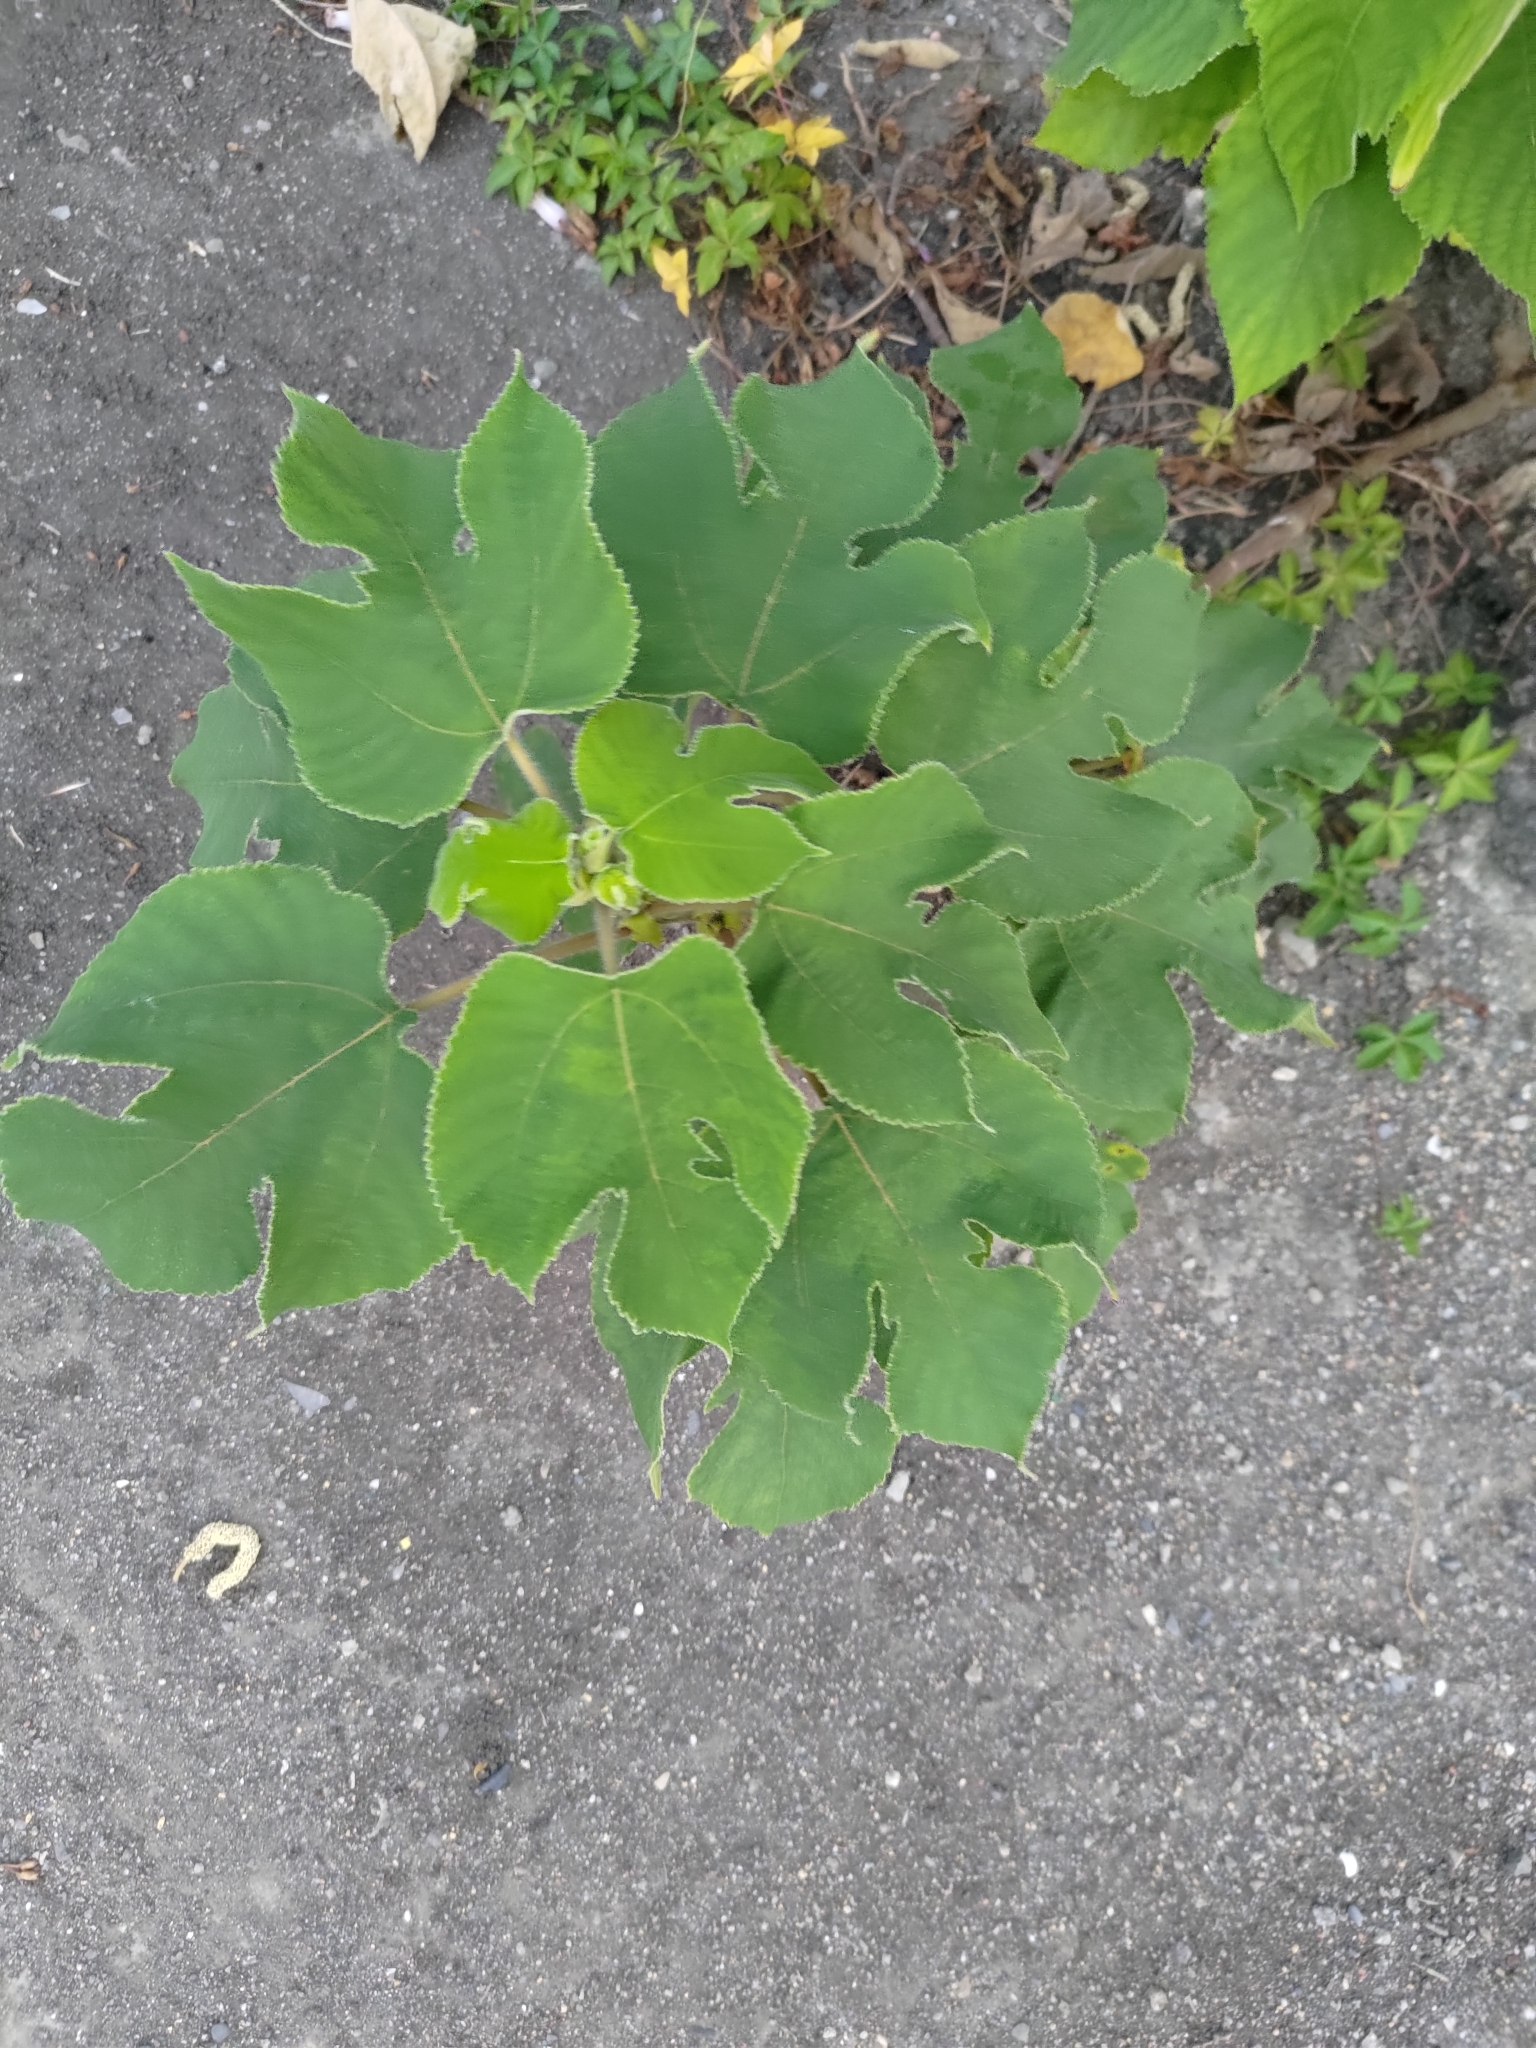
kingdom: Plantae
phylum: Tracheophyta
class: Magnoliopsida
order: Rosales
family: Moraceae
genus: Broussonetia
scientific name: Broussonetia papyrifera
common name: Paper mulberry
